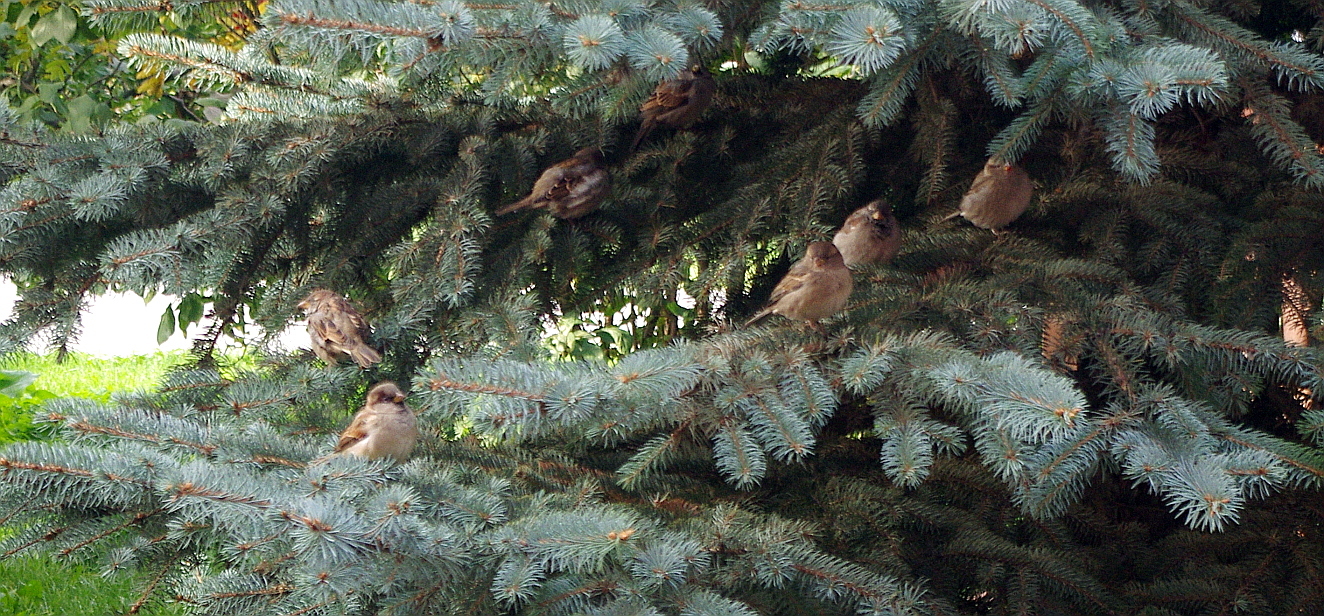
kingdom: Animalia
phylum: Chordata
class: Aves
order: Passeriformes
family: Passeridae
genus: Passer
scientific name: Passer domesticus
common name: House sparrow
